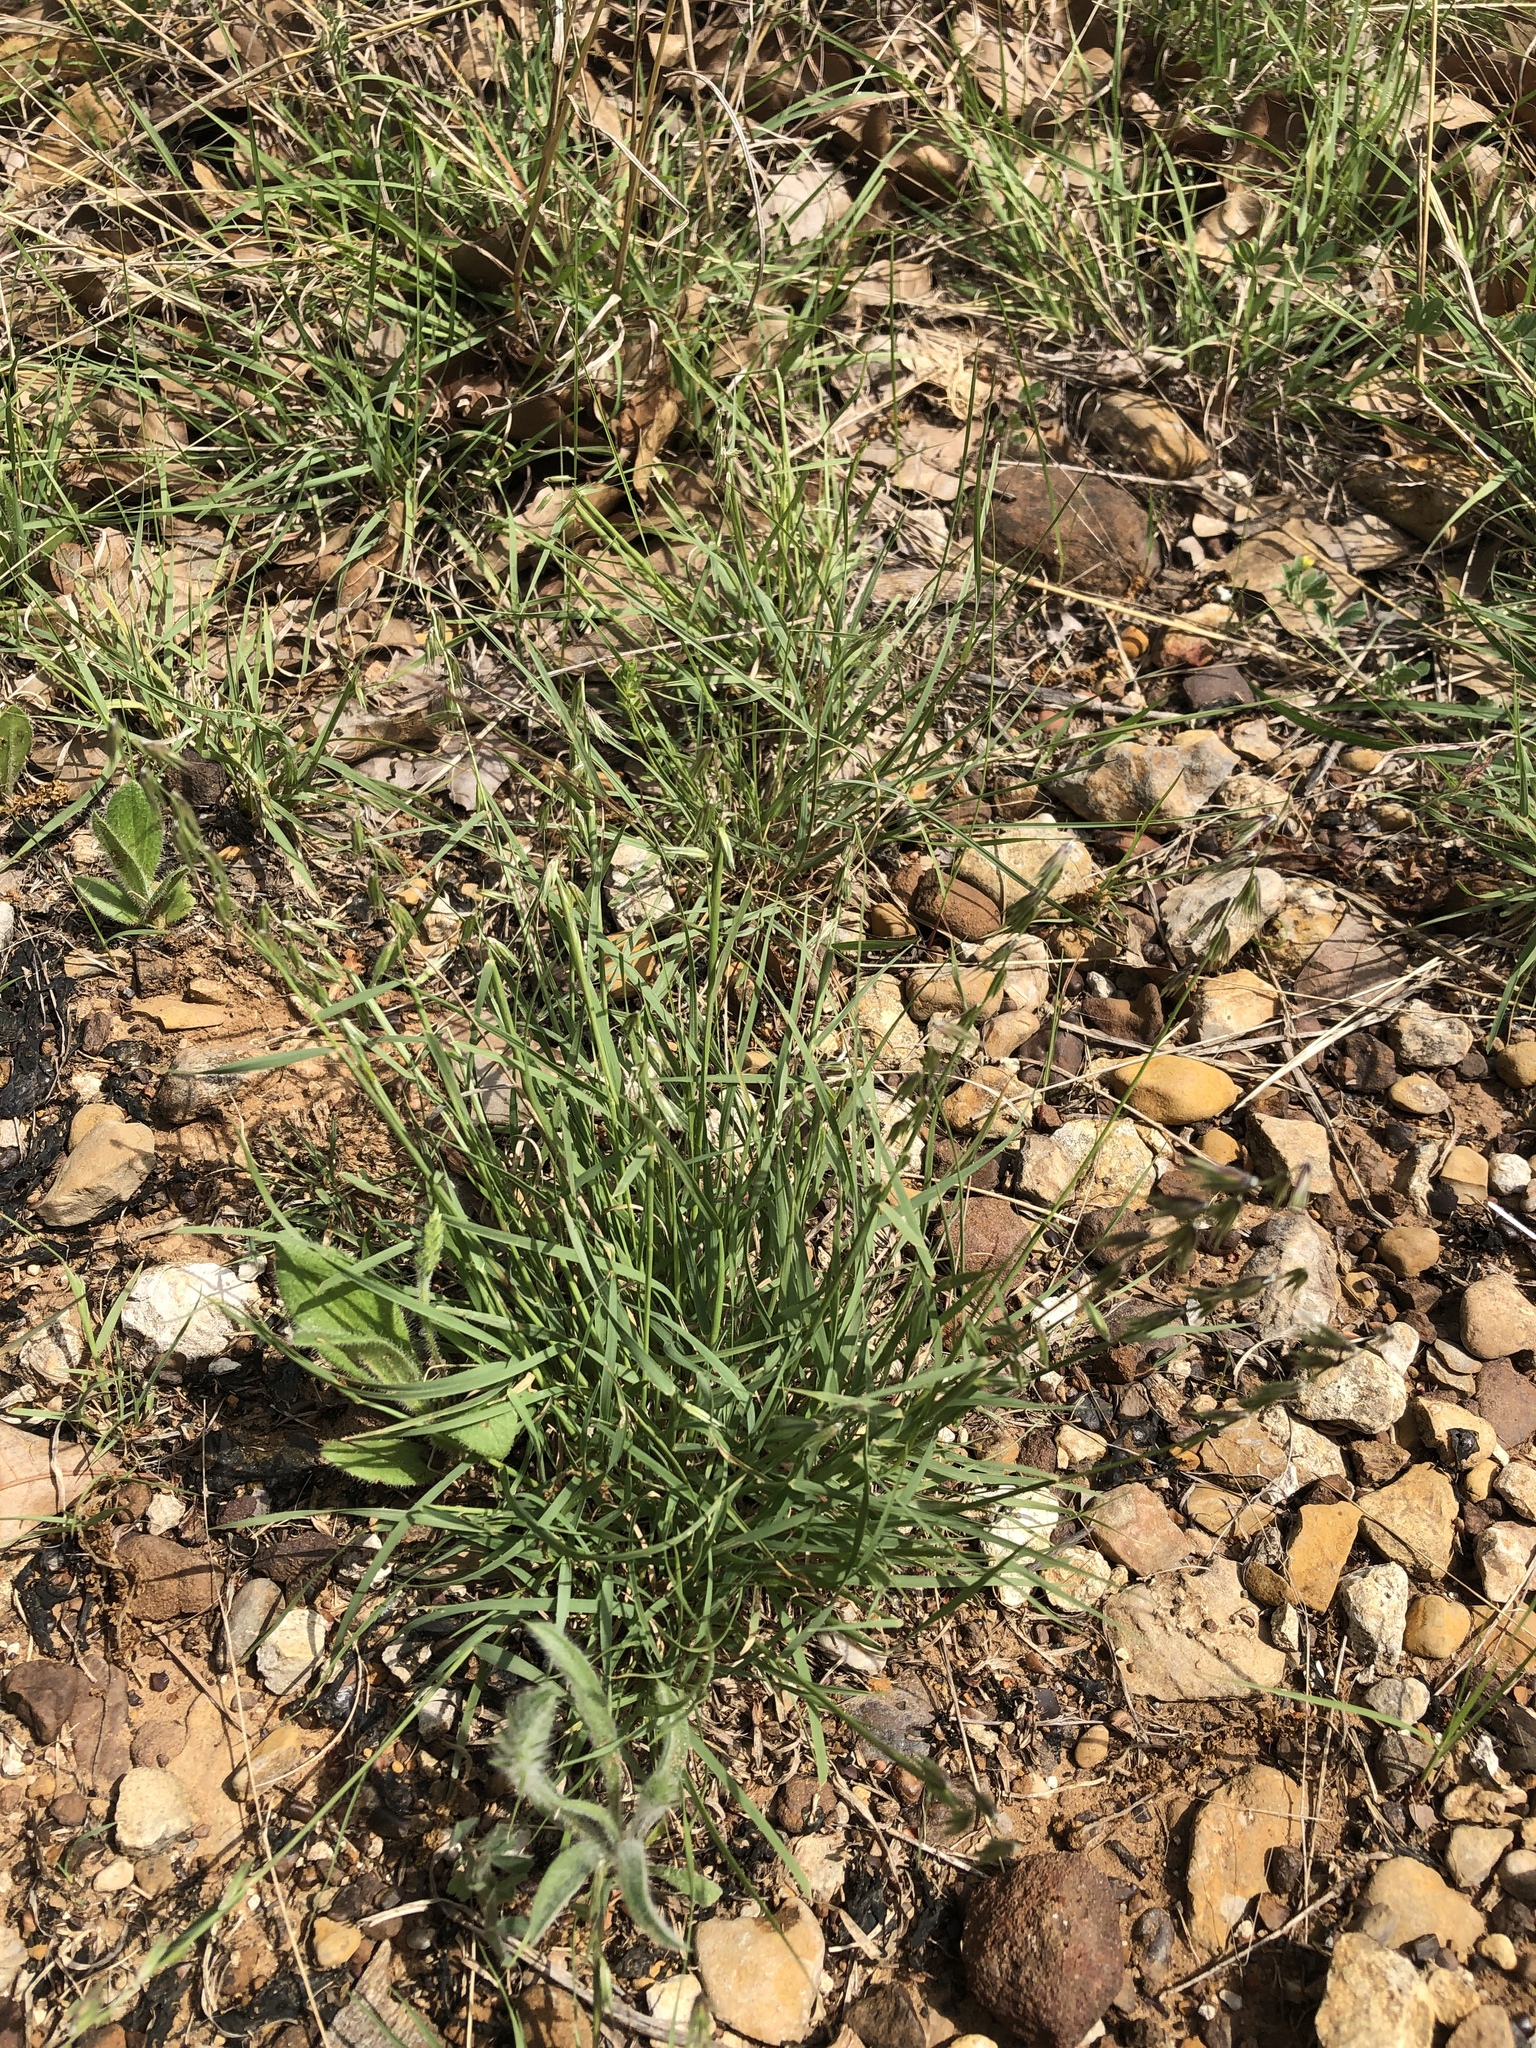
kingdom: Plantae
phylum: Tracheophyta
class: Liliopsida
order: Poales
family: Poaceae
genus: Bouteloua
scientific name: Bouteloua rigidiseta
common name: Texas grama
